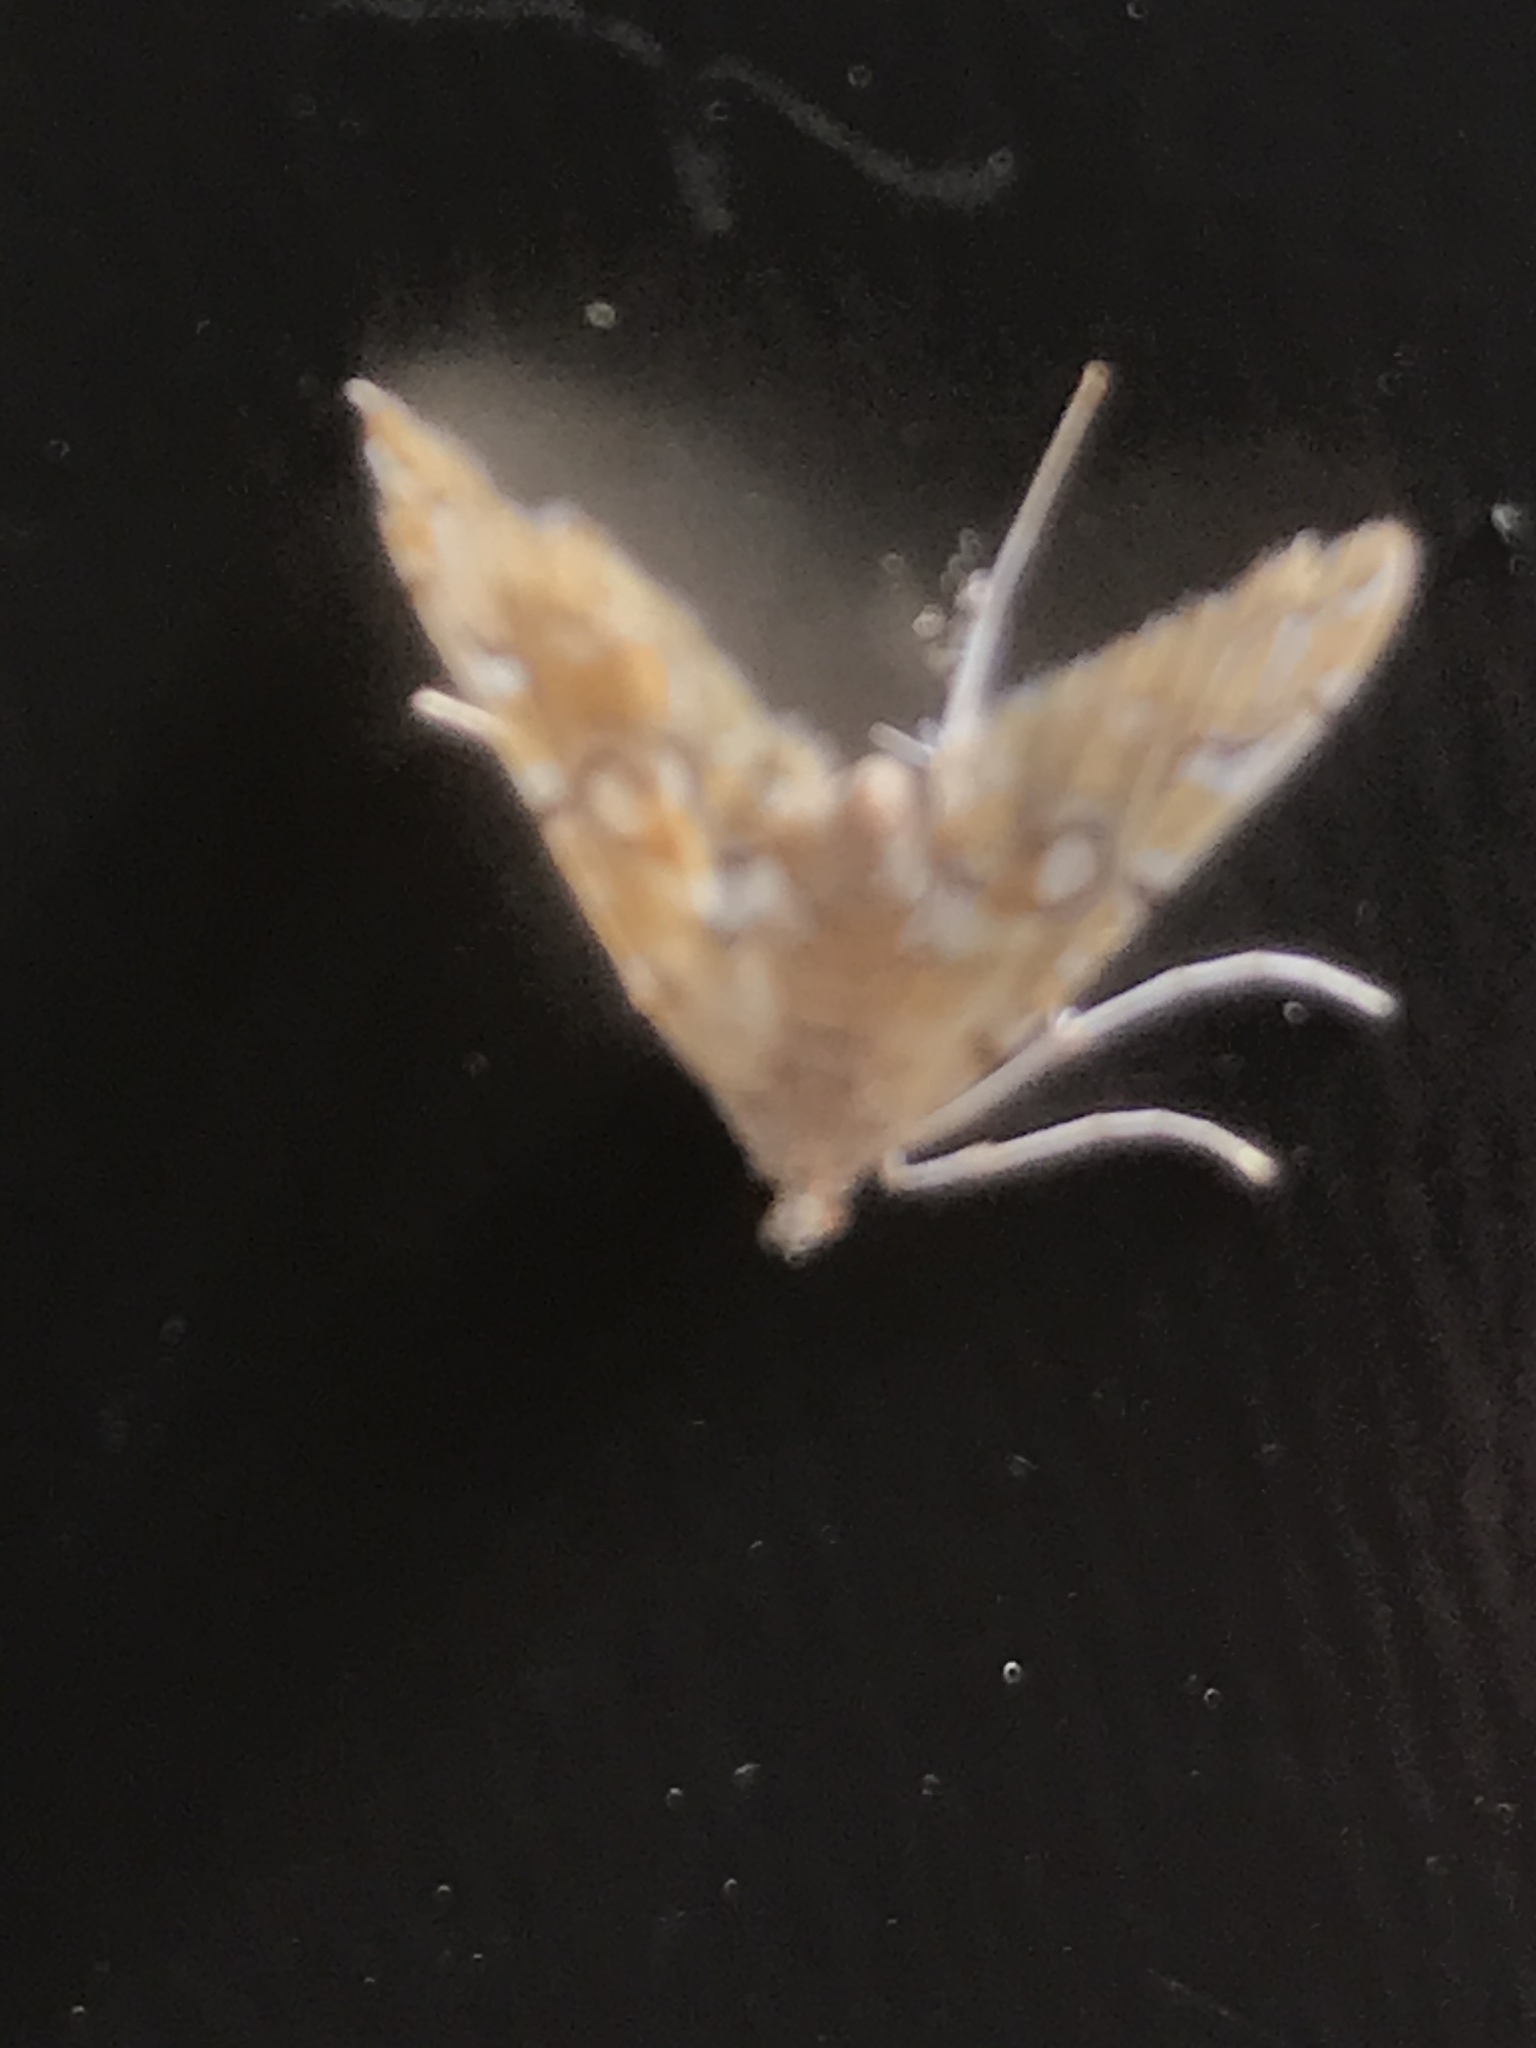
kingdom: Animalia
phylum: Arthropoda
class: Insecta
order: Lepidoptera
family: Crambidae
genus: Elophila
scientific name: Elophila icciusalis
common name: Pondside pyralid moth
